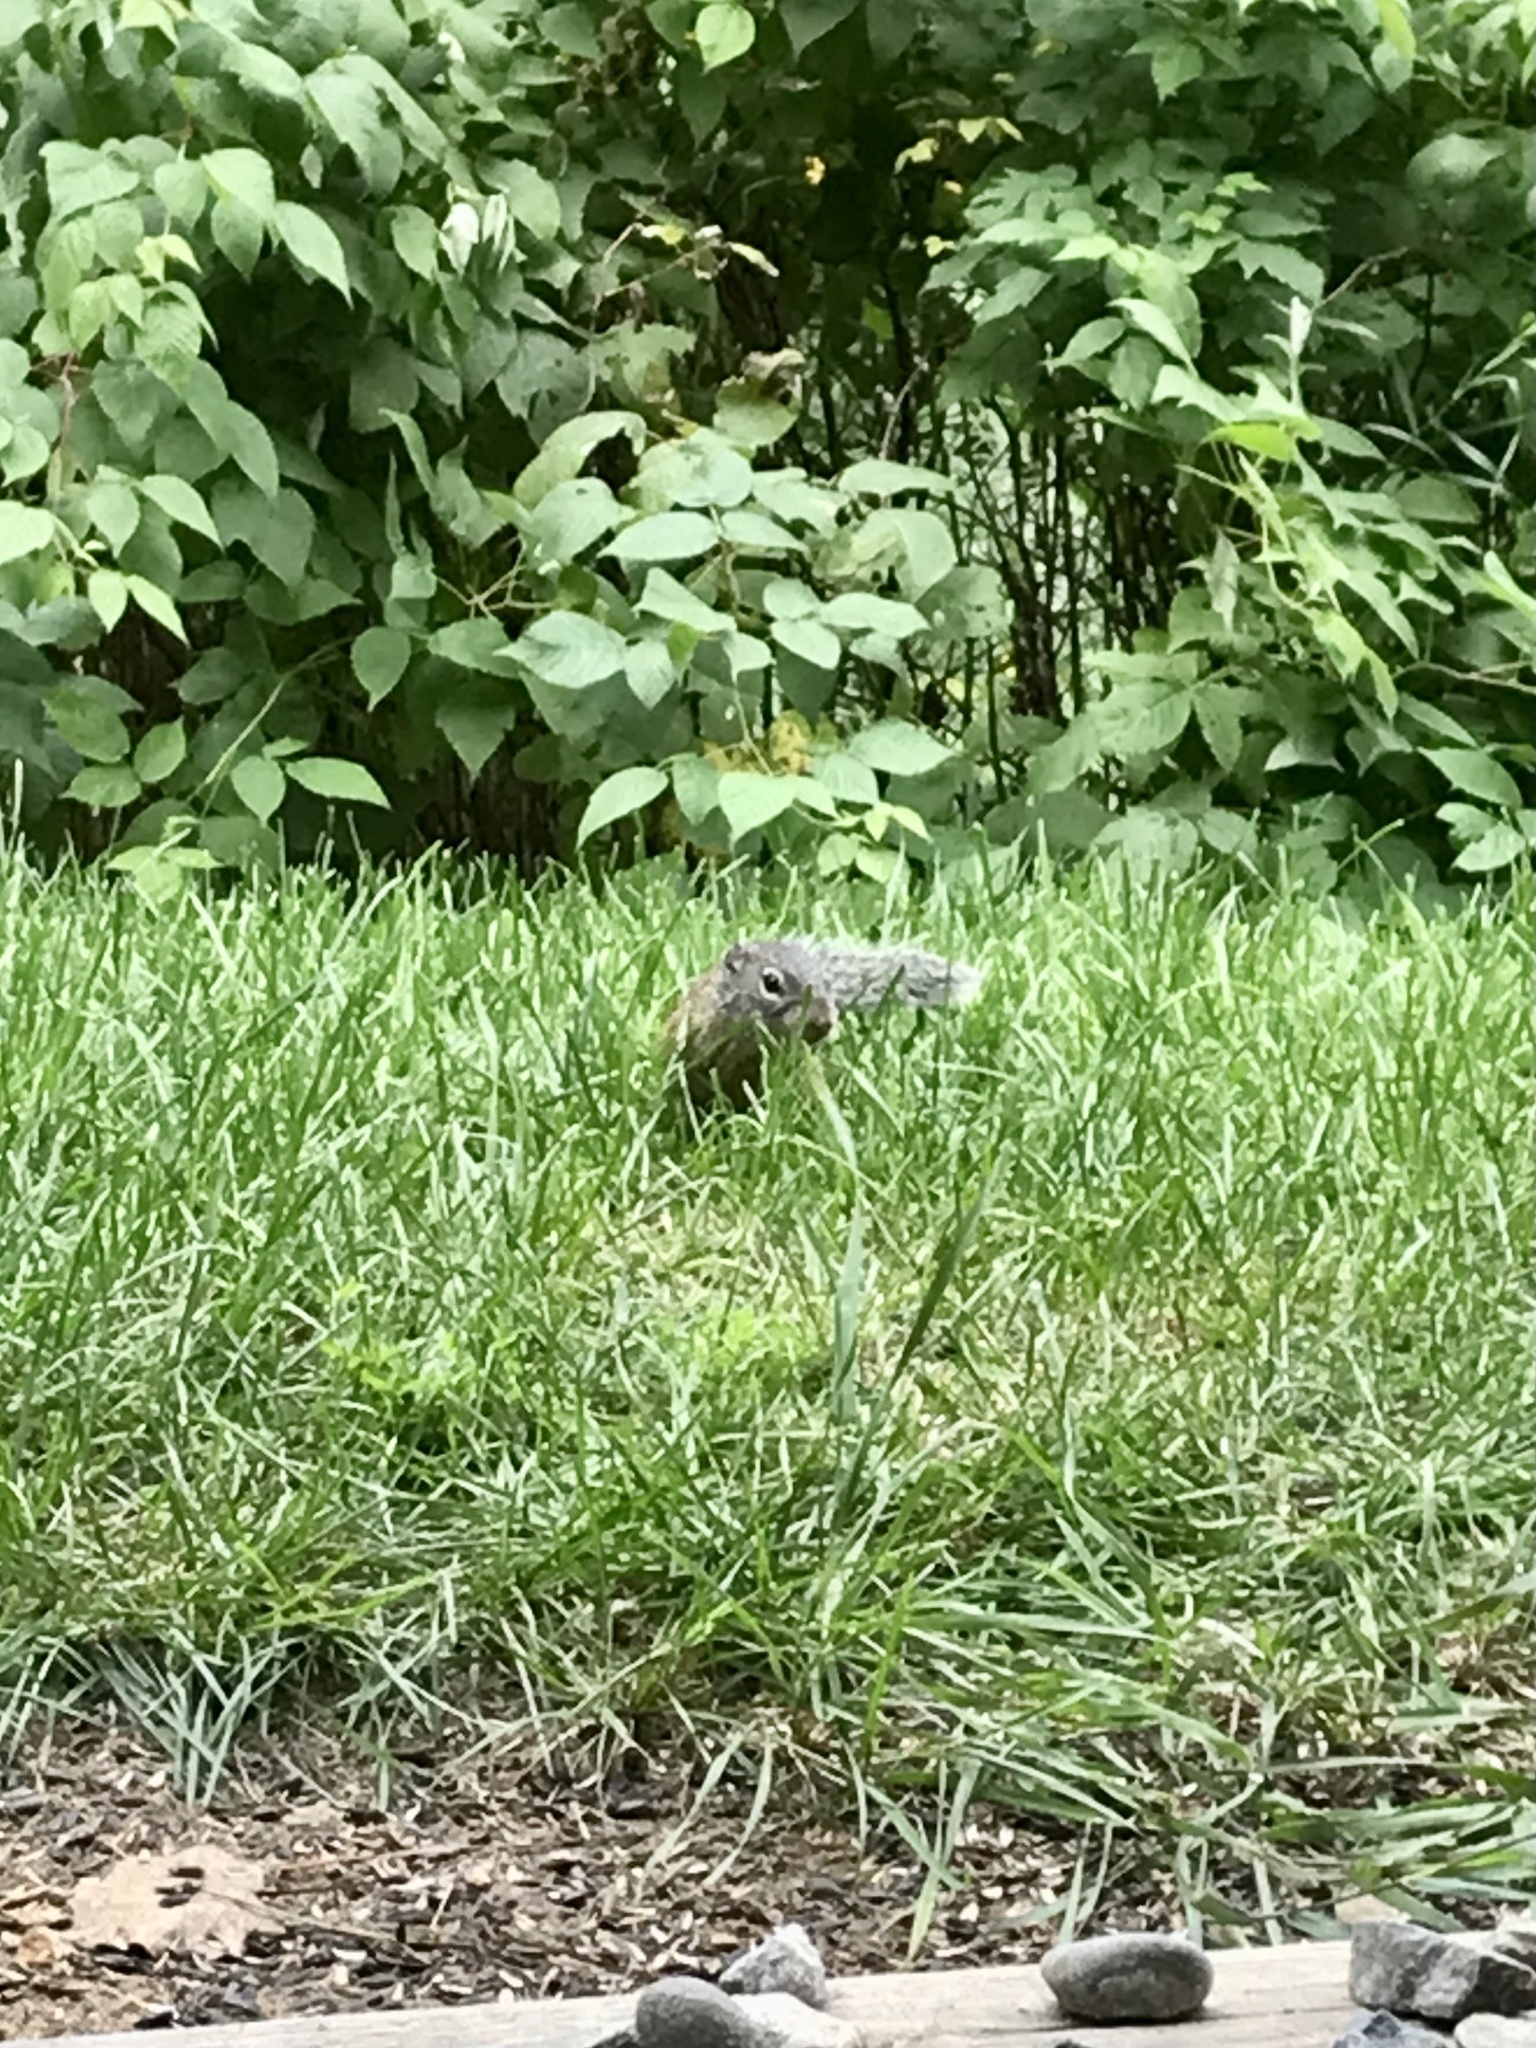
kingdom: Animalia
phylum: Chordata
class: Mammalia
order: Rodentia
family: Sciuridae
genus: Poliocitellus
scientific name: Poliocitellus franklinii
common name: Franklin's ground squirrel
